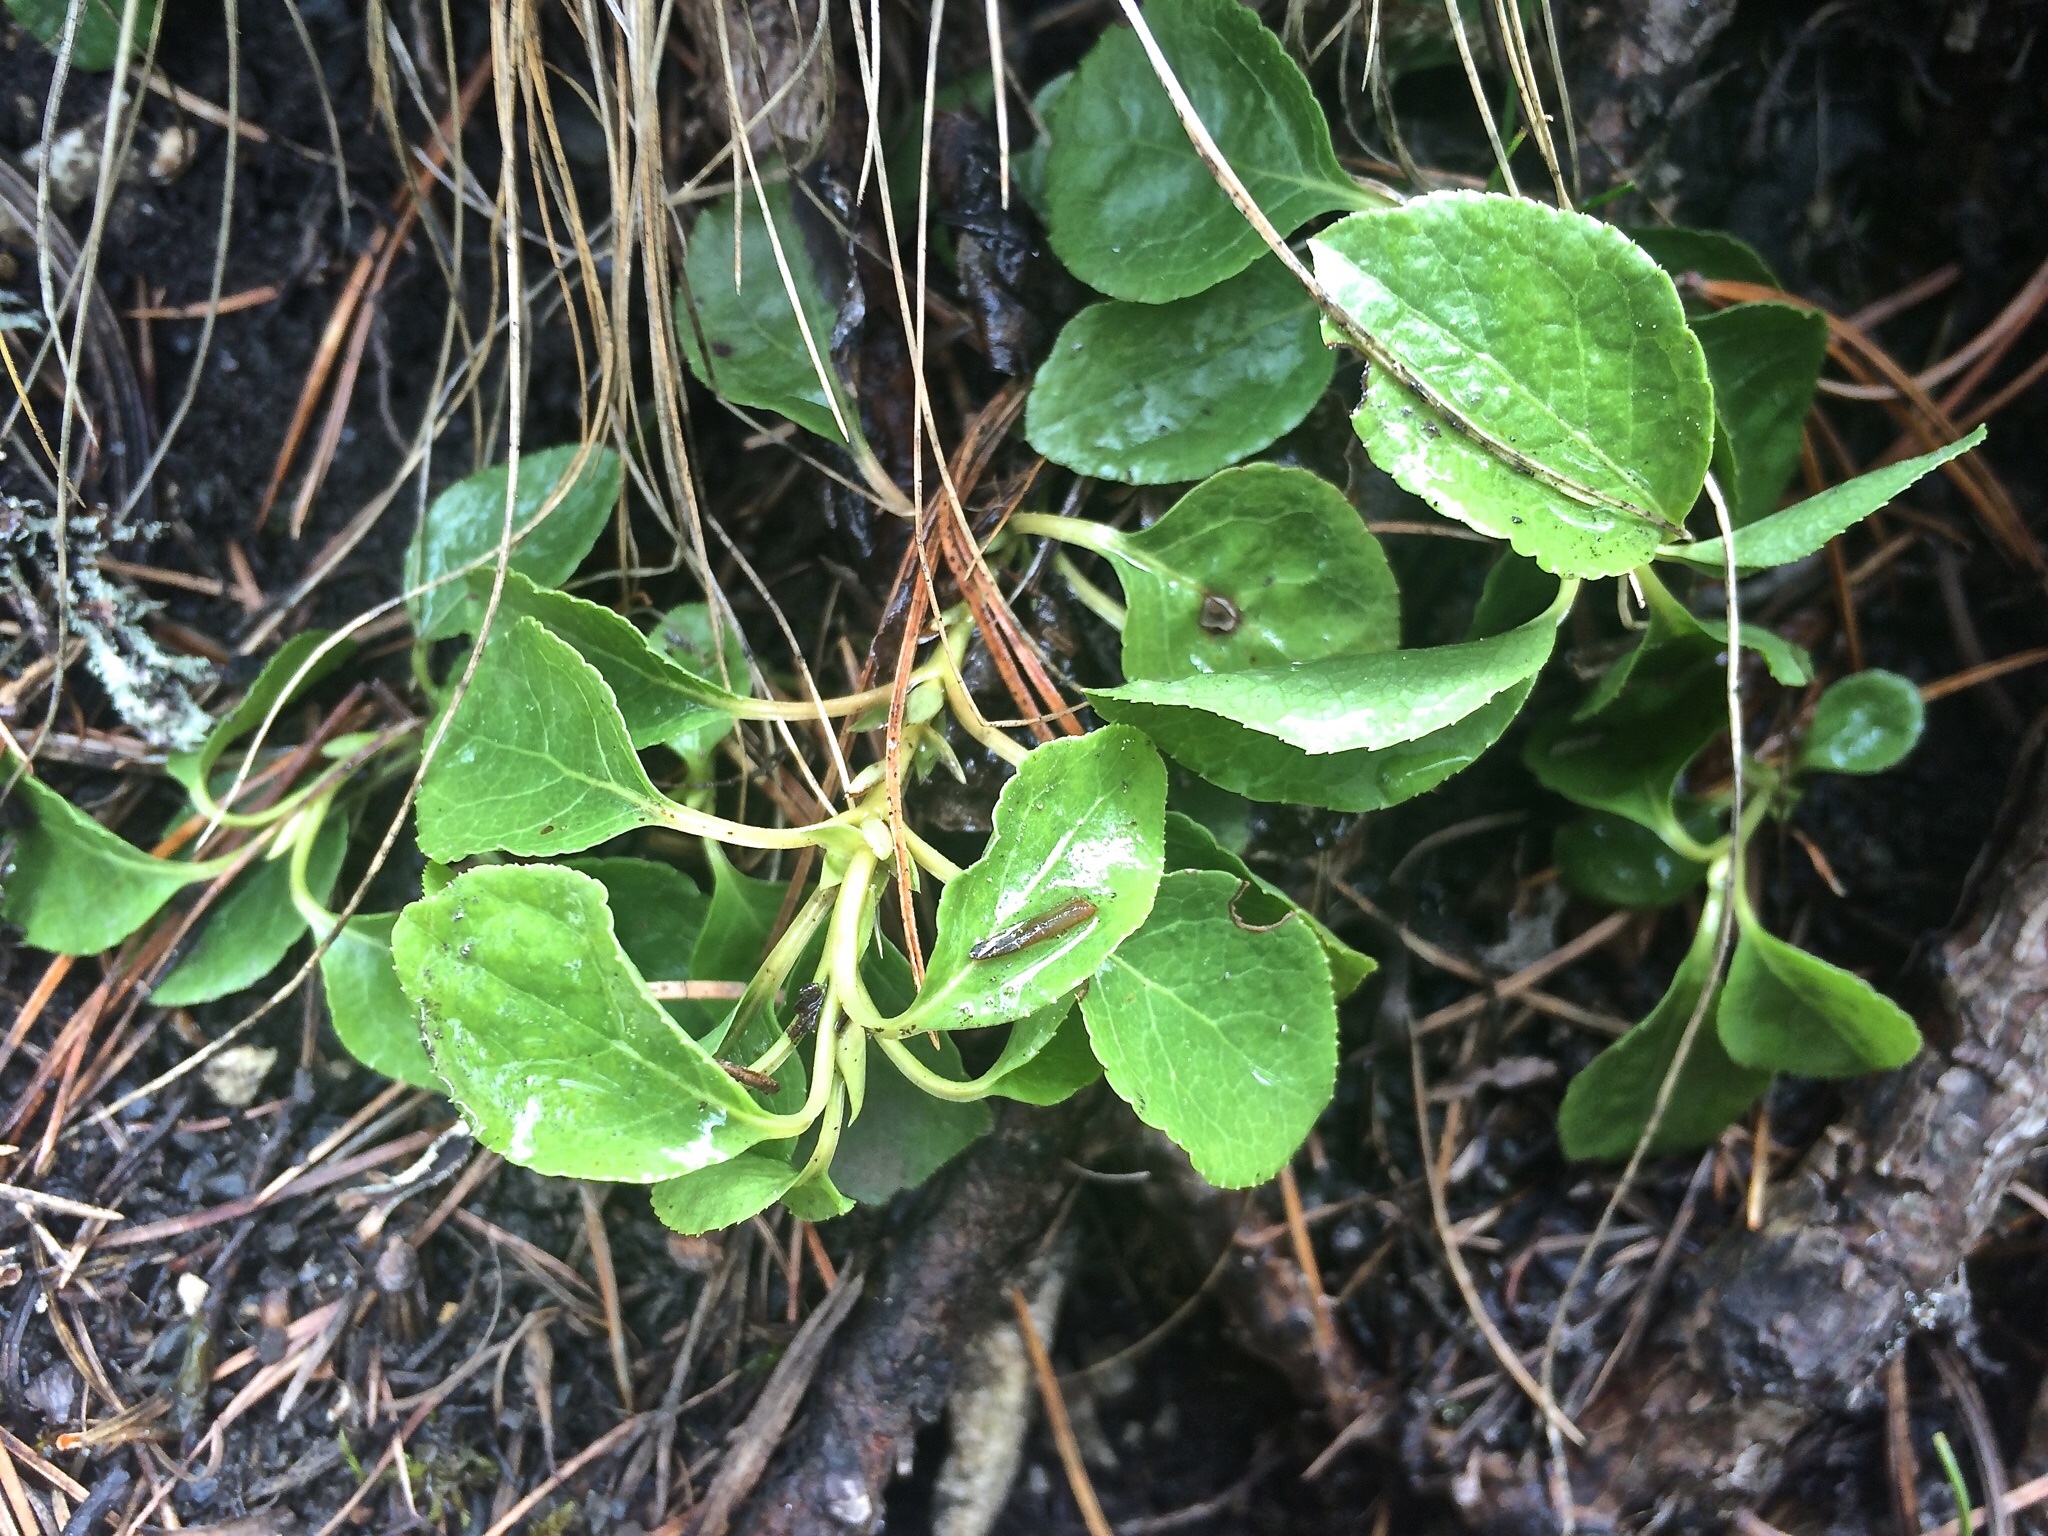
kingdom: Plantae
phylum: Tracheophyta
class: Magnoliopsida
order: Ericales
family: Ericaceae
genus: Orthilia
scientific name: Orthilia secunda
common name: One-sided orthilia
